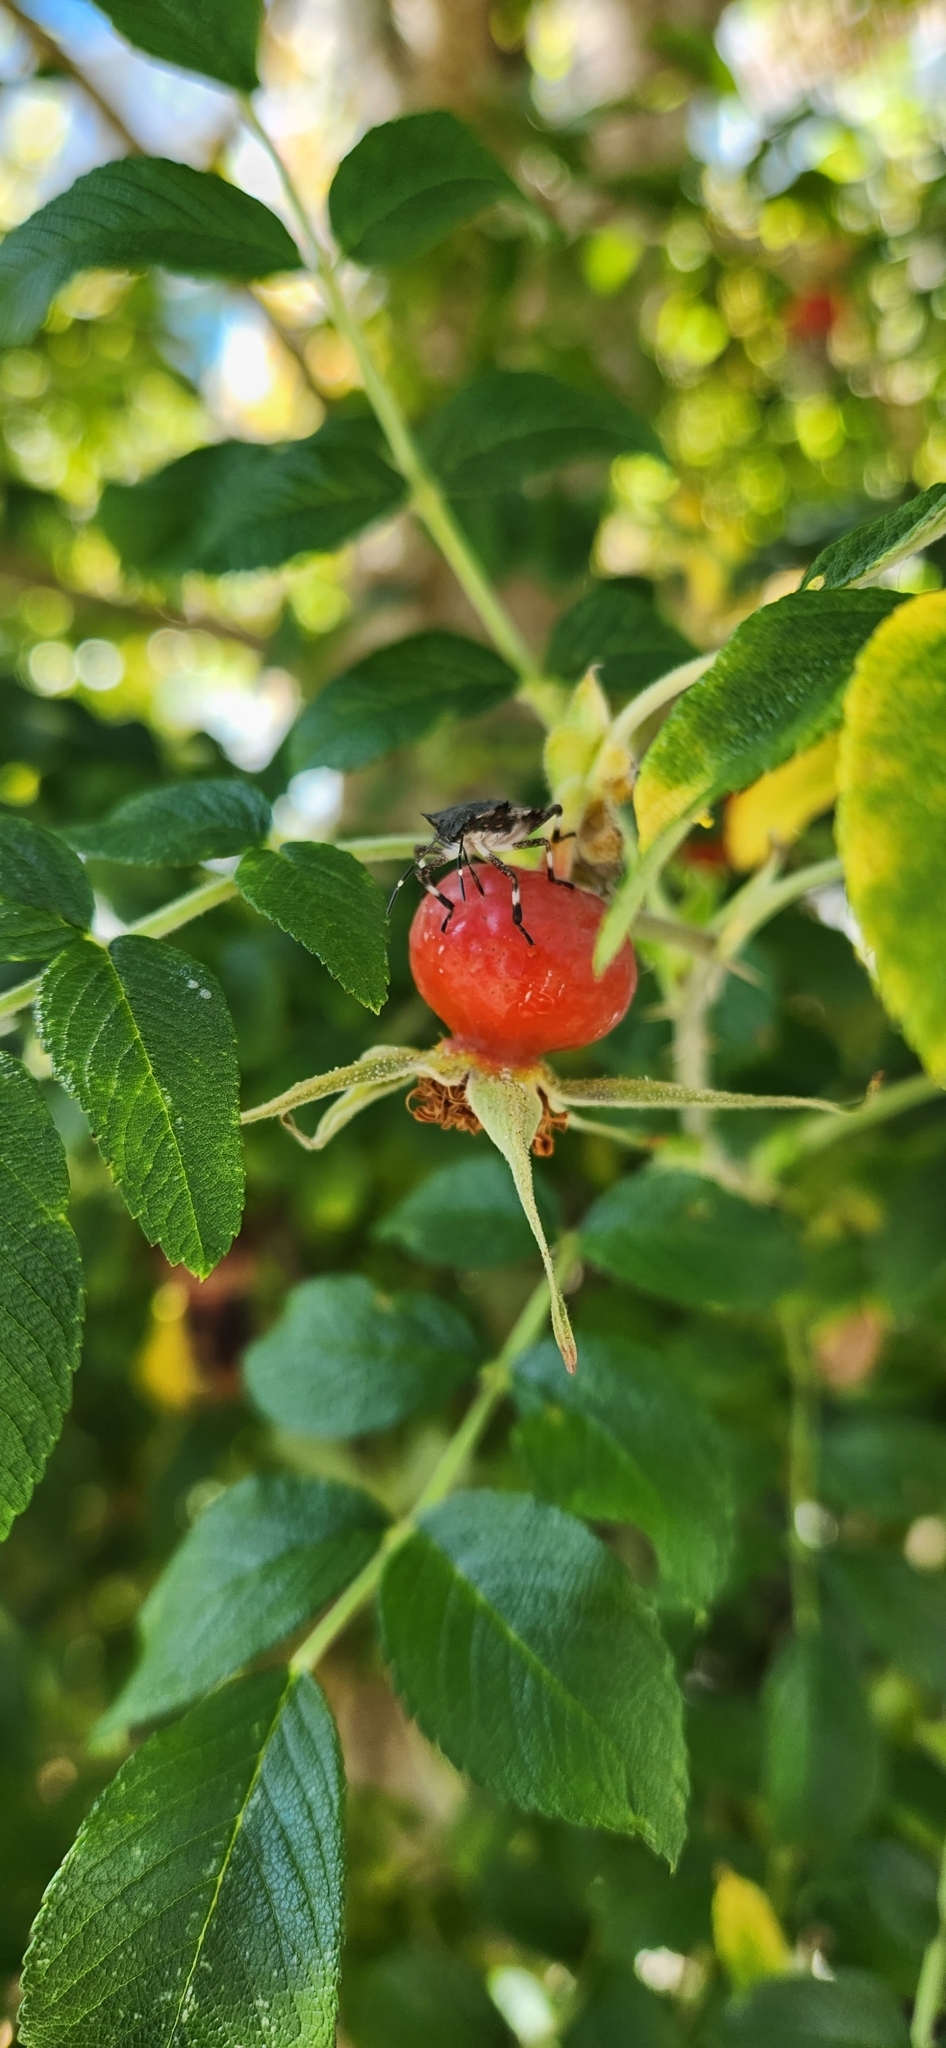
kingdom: Animalia
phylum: Arthropoda
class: Insecta
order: Hemiptera
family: Pentatomidae
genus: Halyomorpha
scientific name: Halyomorpha halys
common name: Brown marmorated stink bug
